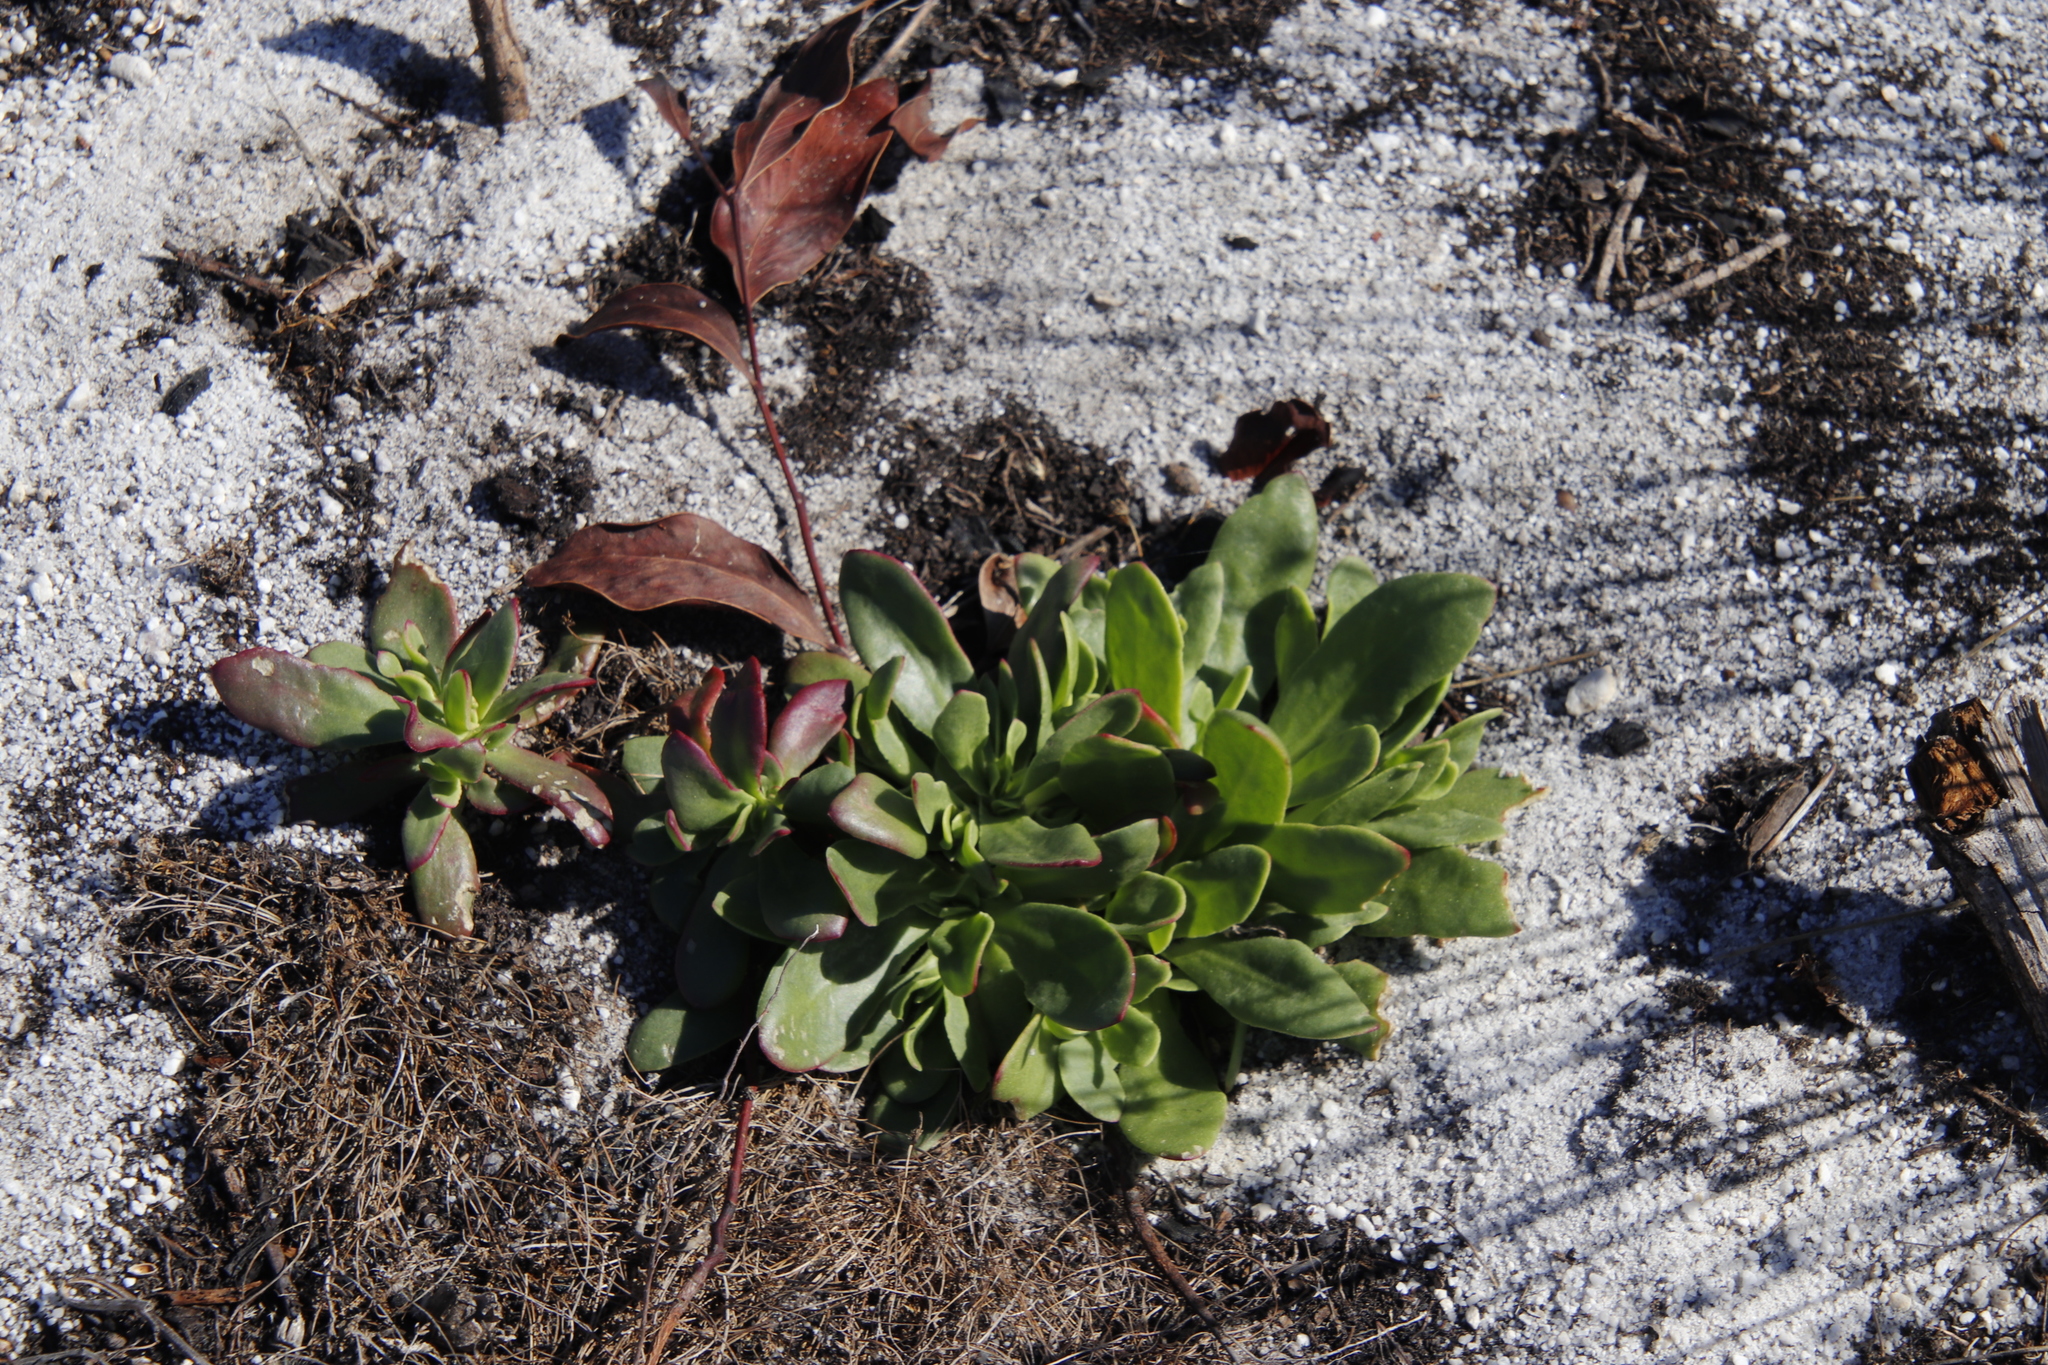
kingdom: Plantae
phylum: Tracheophyta
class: Magnoliopsida
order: Caryophyllales
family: Aizoaceae
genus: Skiatophytum
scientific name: Skiatophytum tripolium
